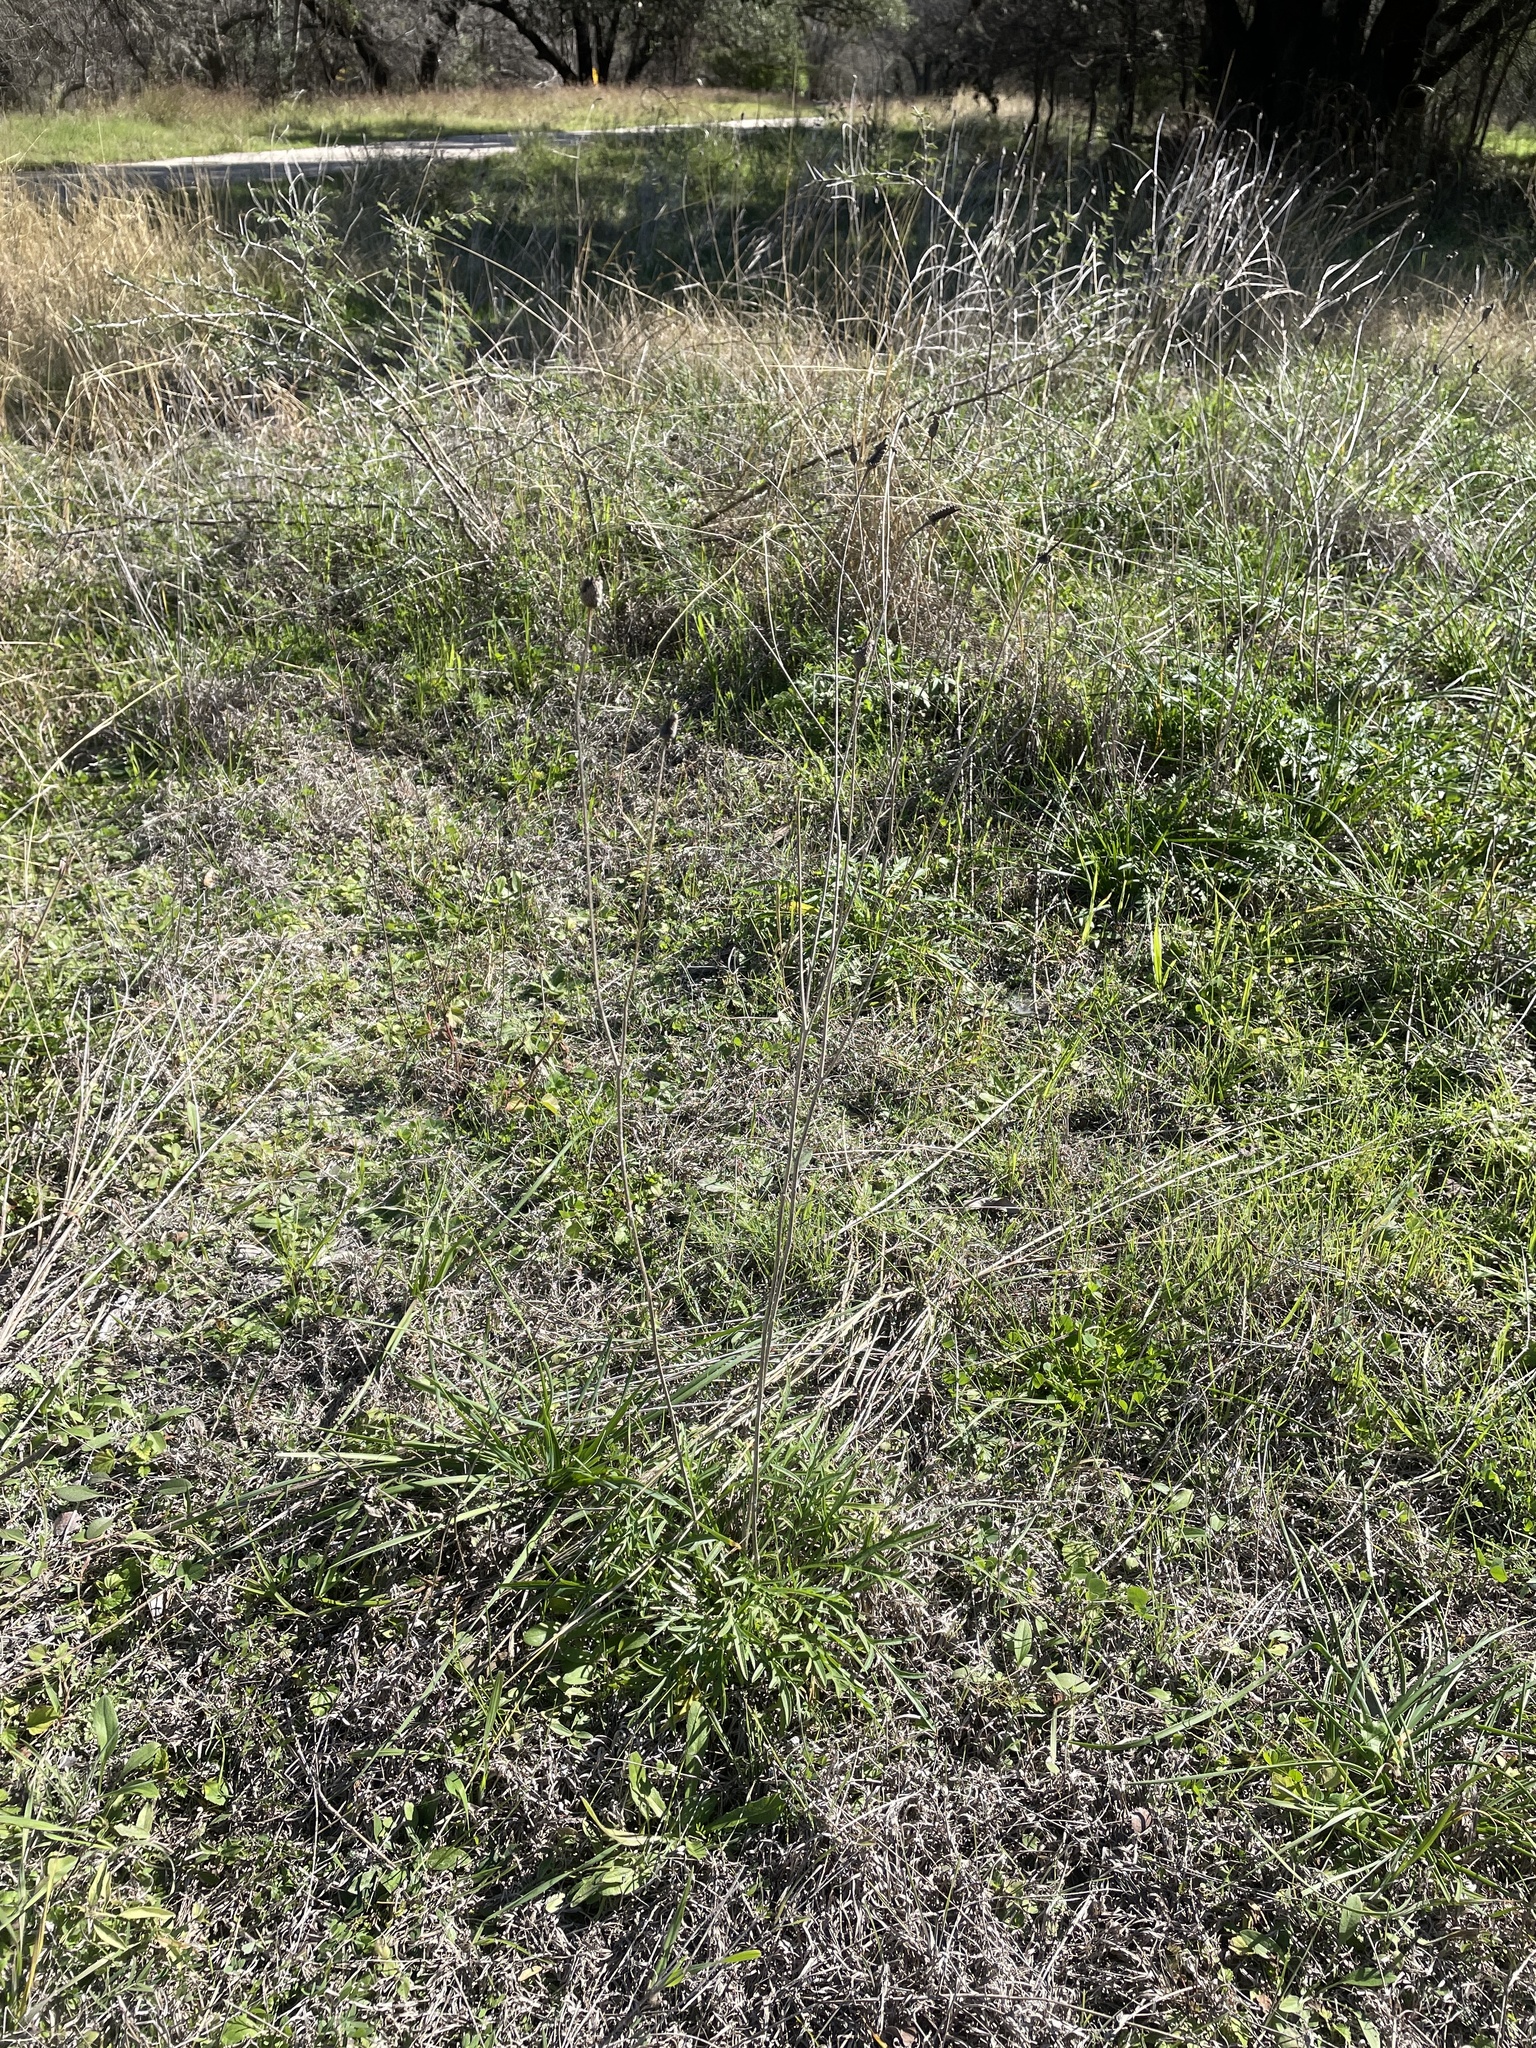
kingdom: Plantae
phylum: Tracheophyta
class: Magnoliopsida
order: Asterales
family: Asteraceae
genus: Ratibida
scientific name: Ratibida columnifera
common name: Prairie coneflower
